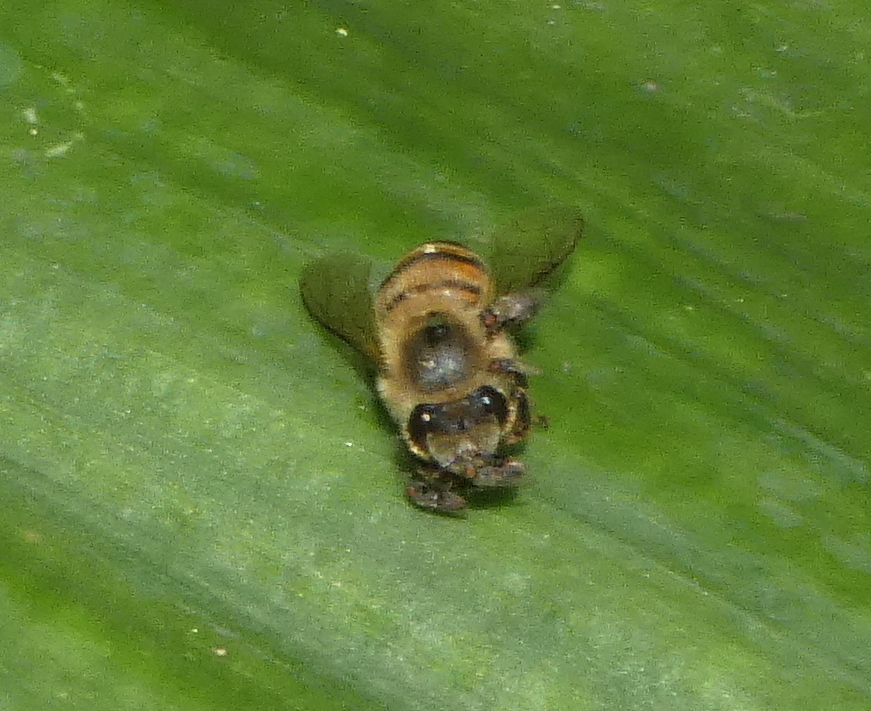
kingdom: Animalia
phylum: Arthropoda
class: Insecta
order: Hymenoptera
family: Apidae
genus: Apis
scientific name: Apis mellifera
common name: Honey bee
